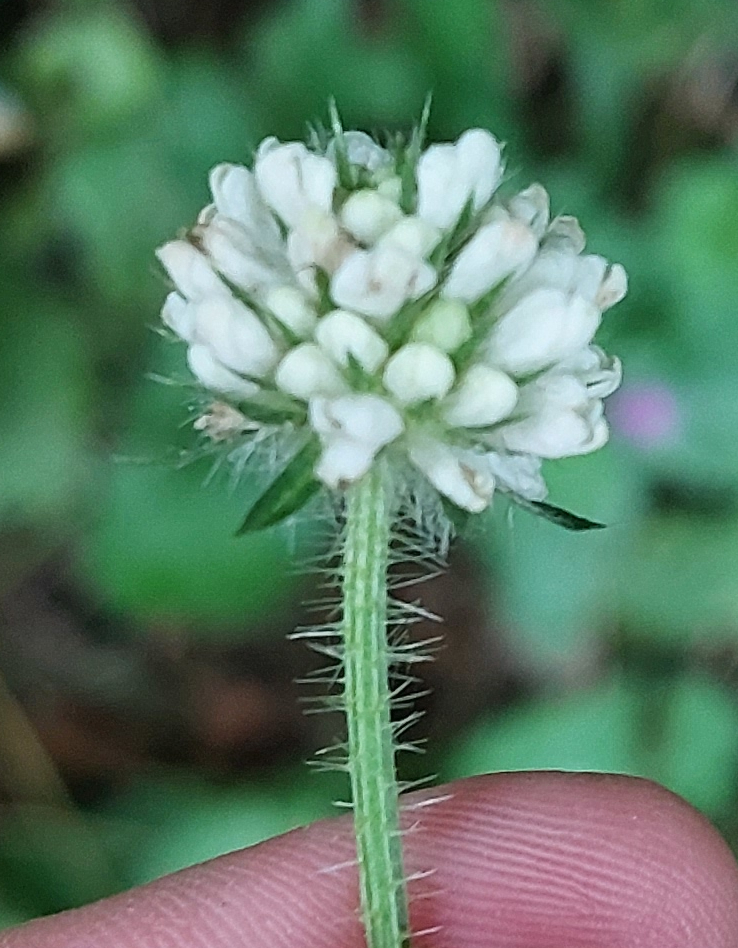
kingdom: Plantae
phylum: Tracheophyta
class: Magnoliopsida
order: Dipsacales
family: Caprifoliaceae
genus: Dipsacus
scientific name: Dipsacus pilosus
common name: Small teasel
